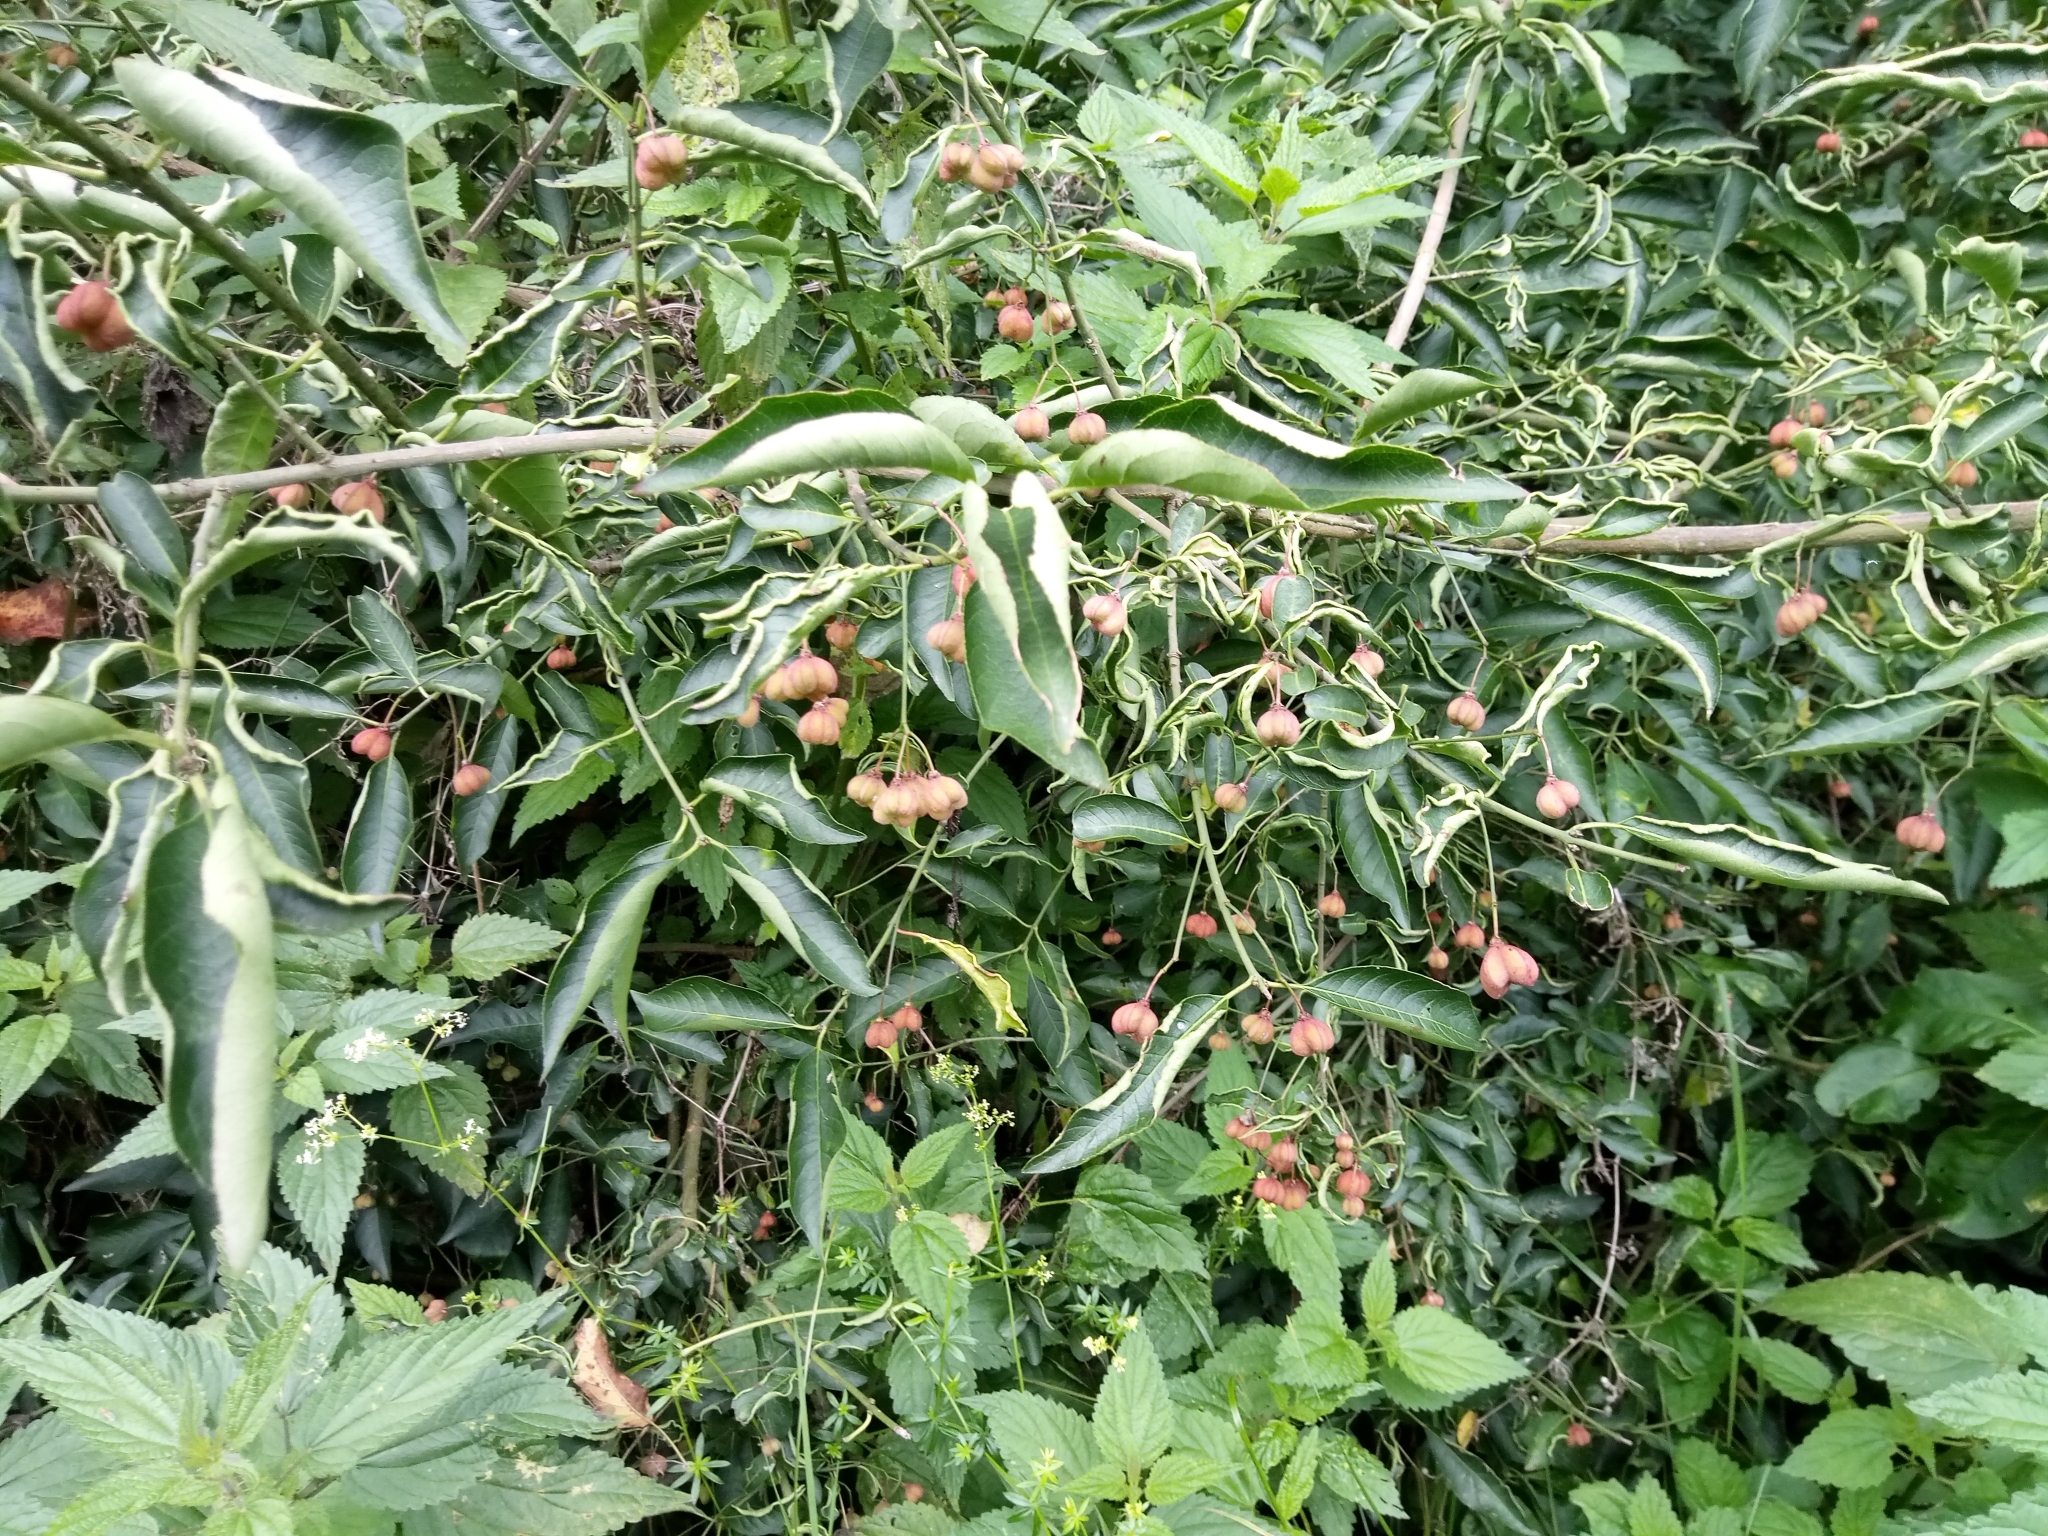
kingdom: Plantae
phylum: Tracheophyta
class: Magnoliopsida
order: Celastrales
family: Celastraceae
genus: Euonymus
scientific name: Euonymus europaeus
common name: Spindle
